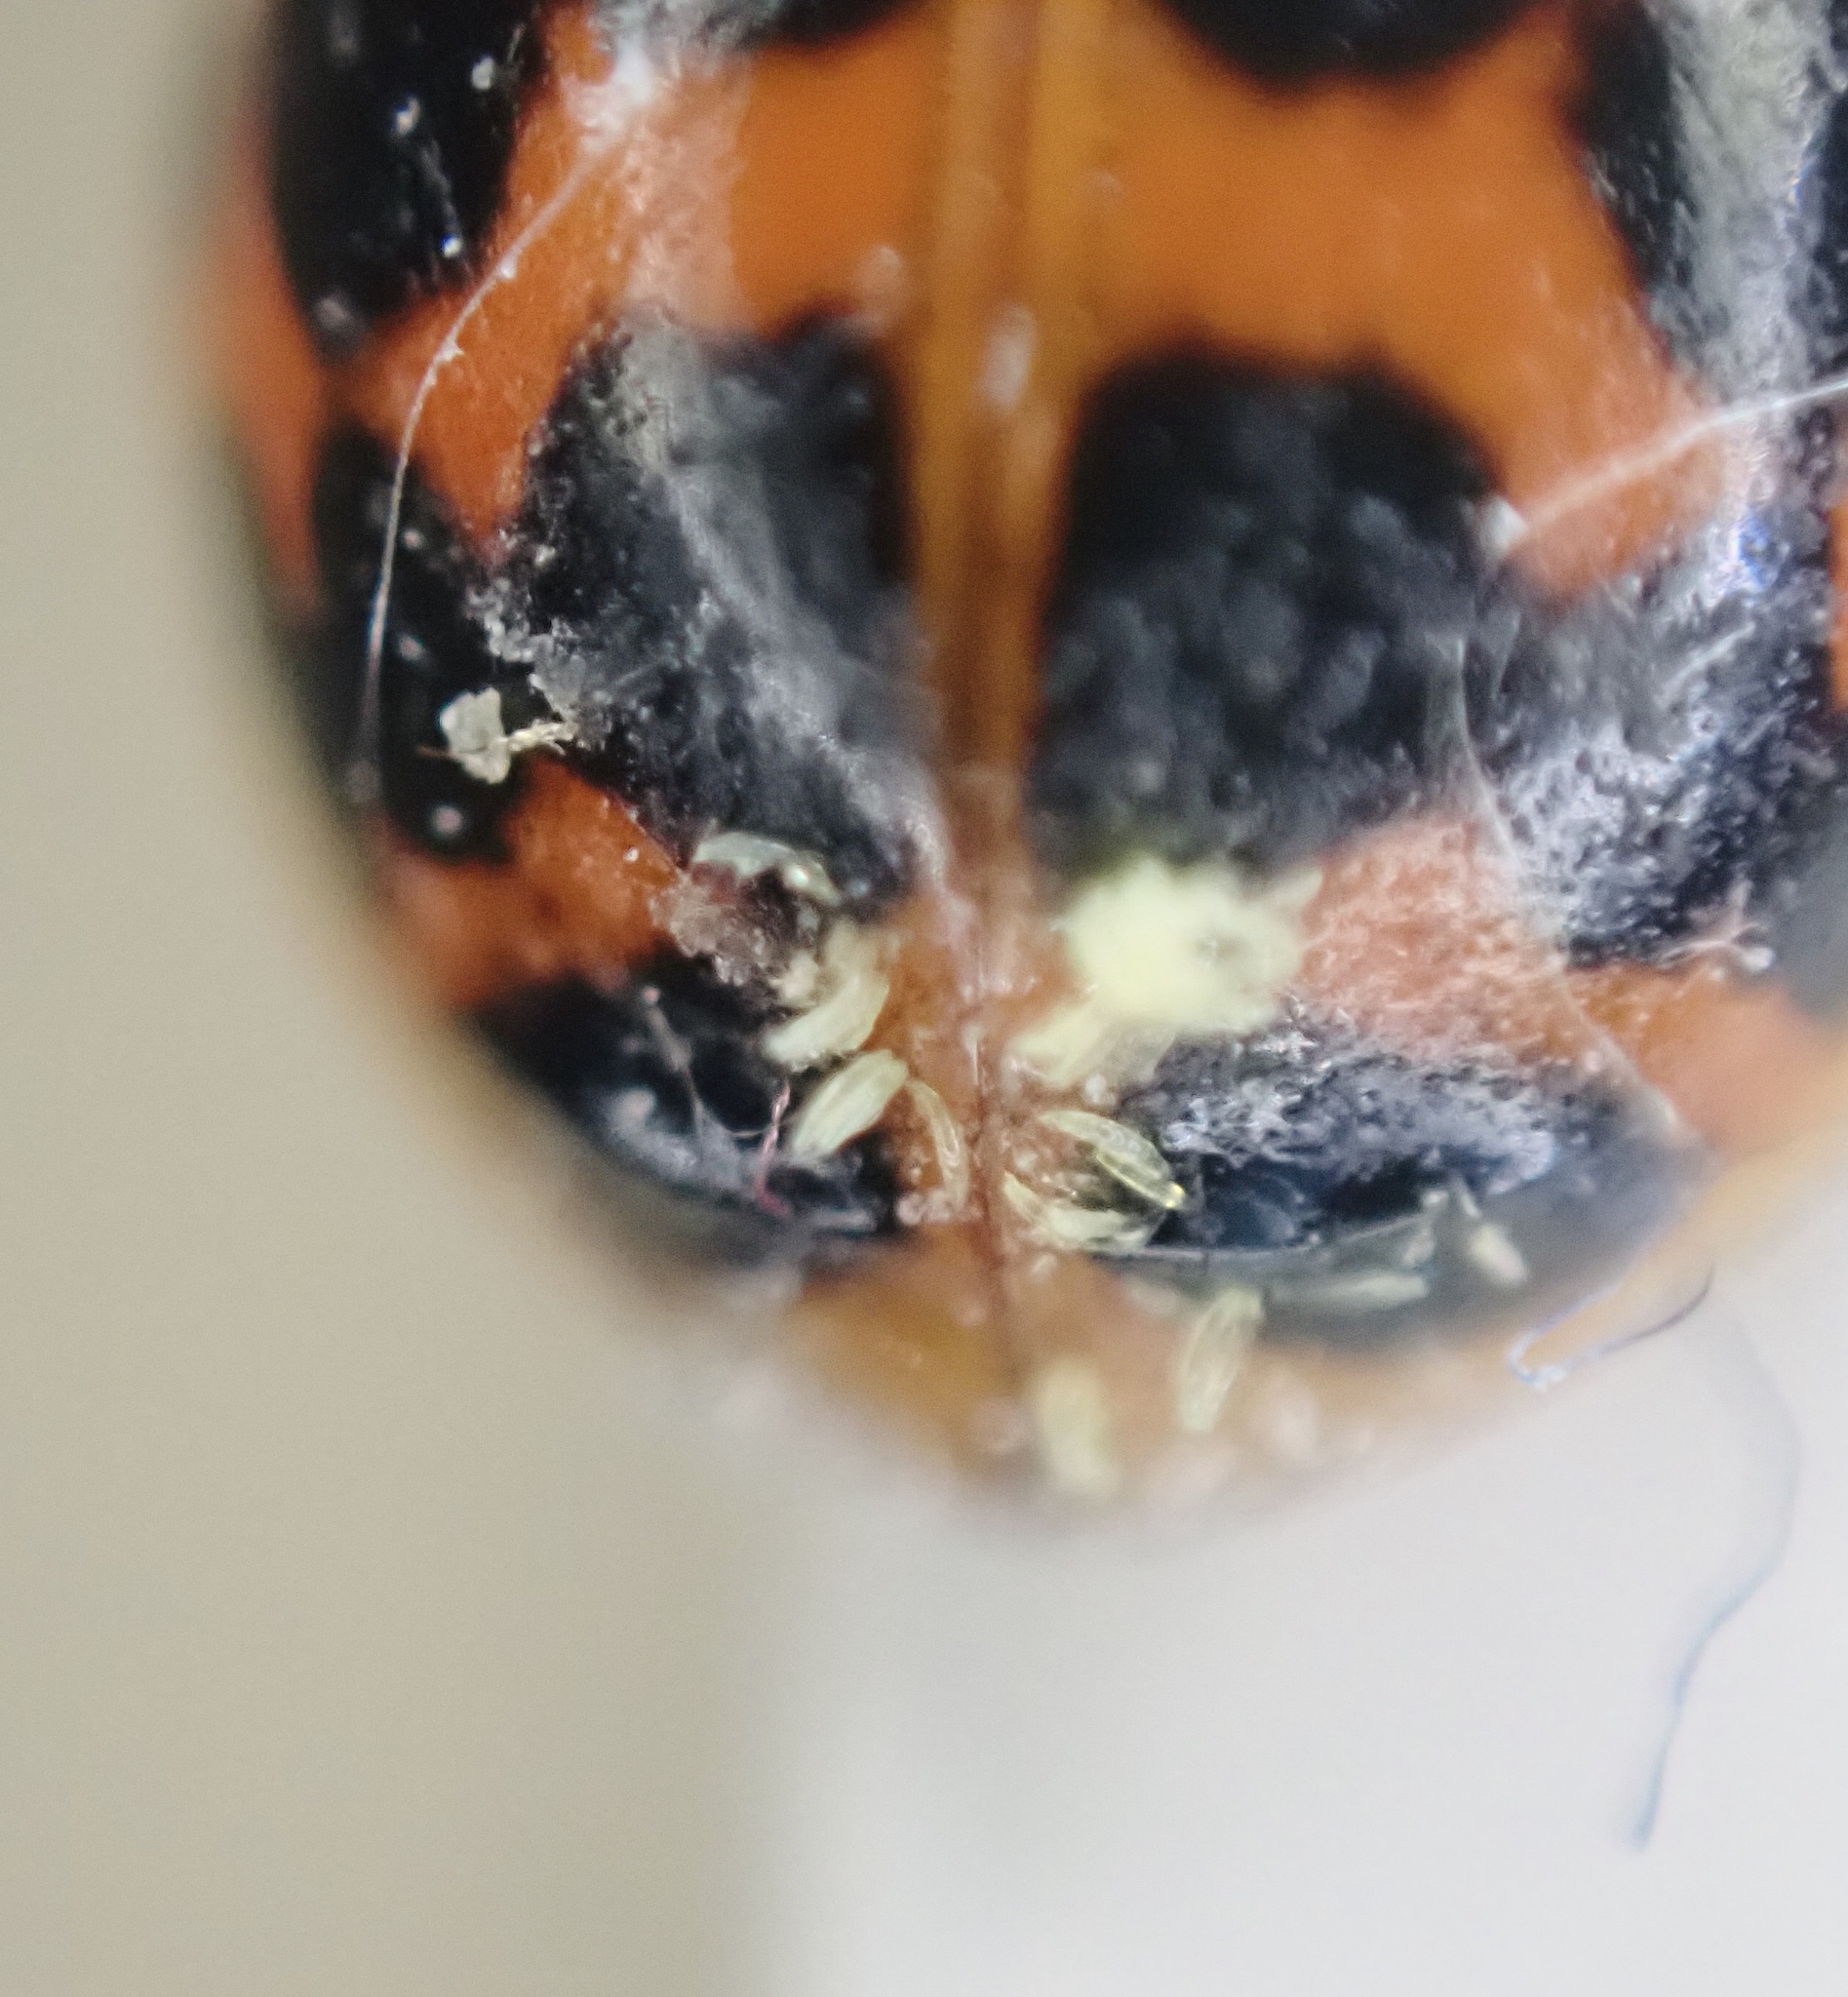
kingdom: Fungi
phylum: Ascomycota
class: Laboulbeniomycetes
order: Laboulbeniales
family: Laboulbeniaceae
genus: Hesperomyces
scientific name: Hesperomyces harmoniae
